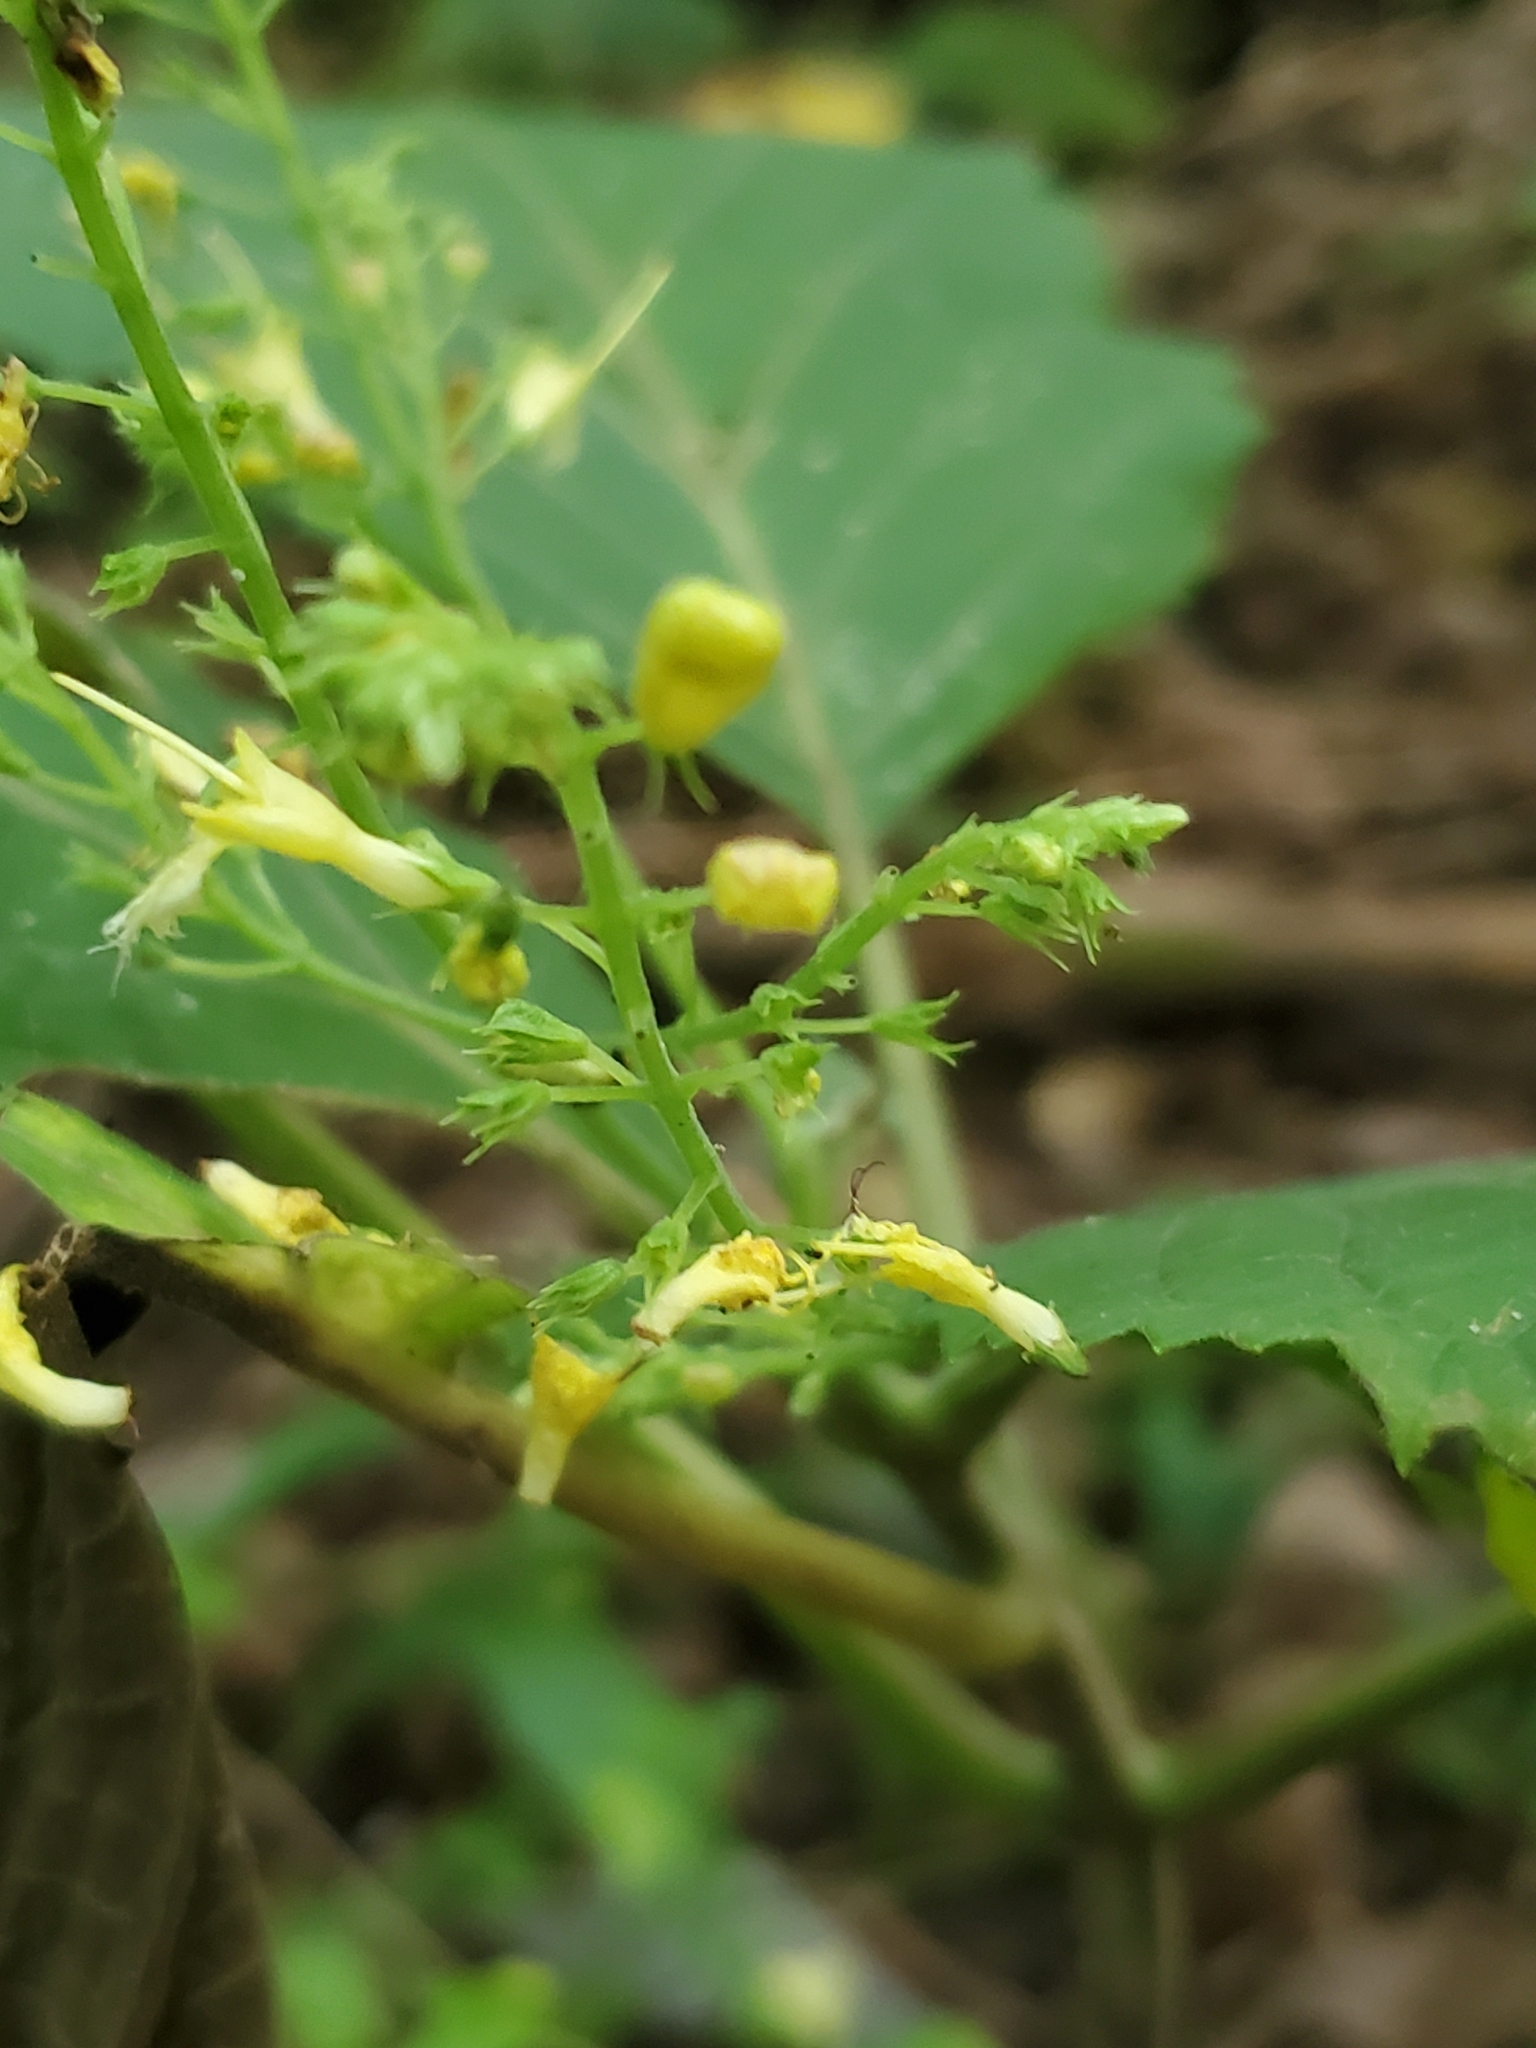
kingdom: Plantae
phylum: Tracheophyta
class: Magnoliopsida
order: Lamiales
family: Lamiaceae
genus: Collinsonia
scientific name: Collinsonia canadensis
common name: Northern horsebalm
